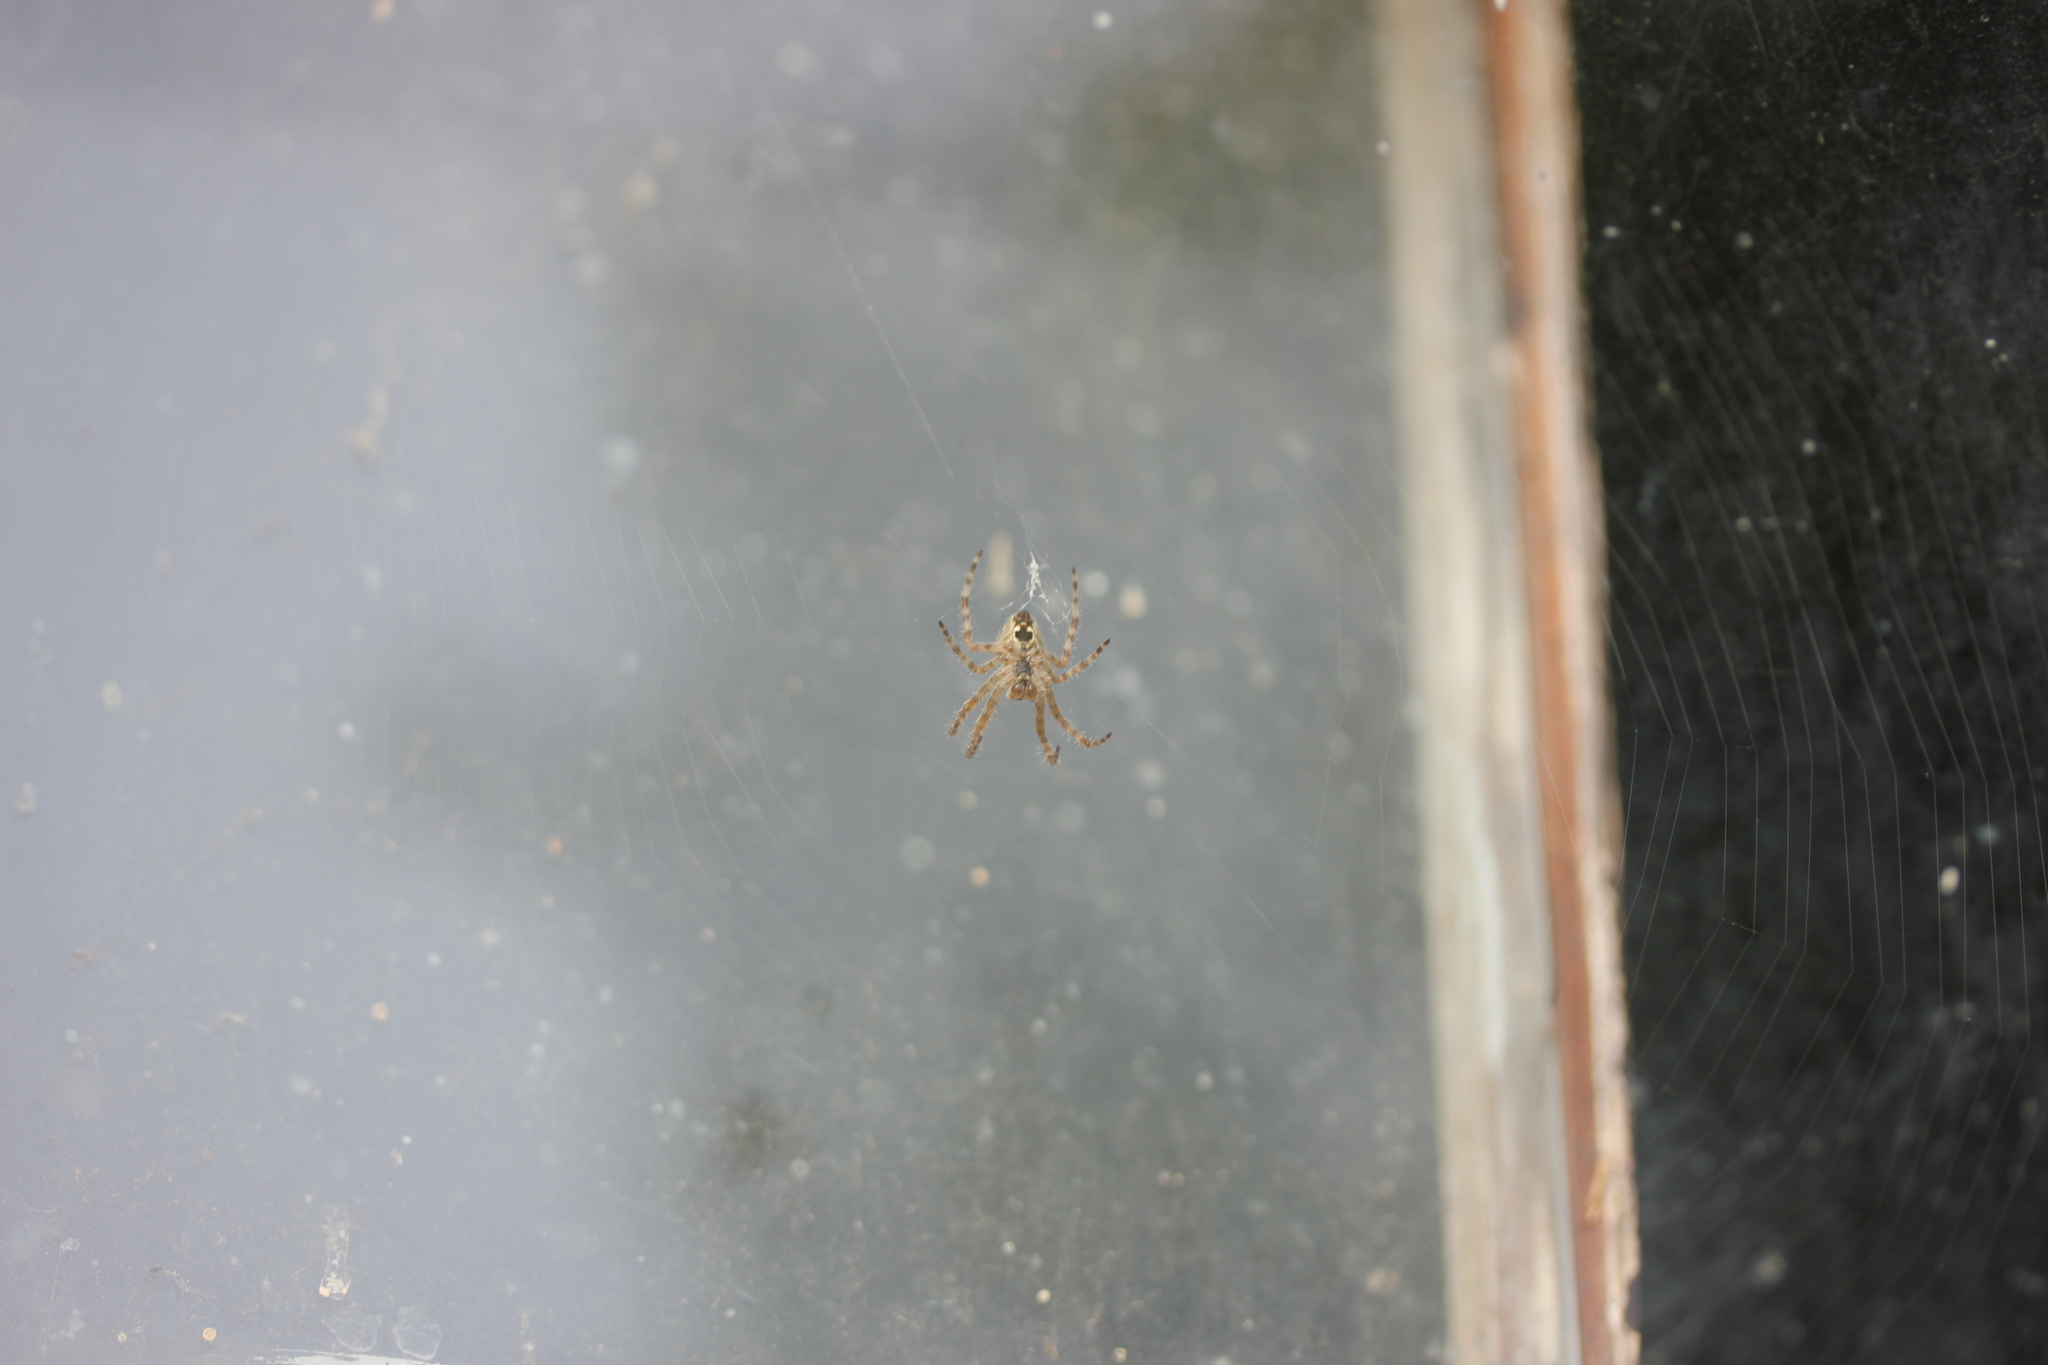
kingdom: Animalia
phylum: Arthropoda
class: Arachnida
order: Araneae
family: Araneidae
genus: Araneus
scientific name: Araneus diadematus
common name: Cross orbweaver
